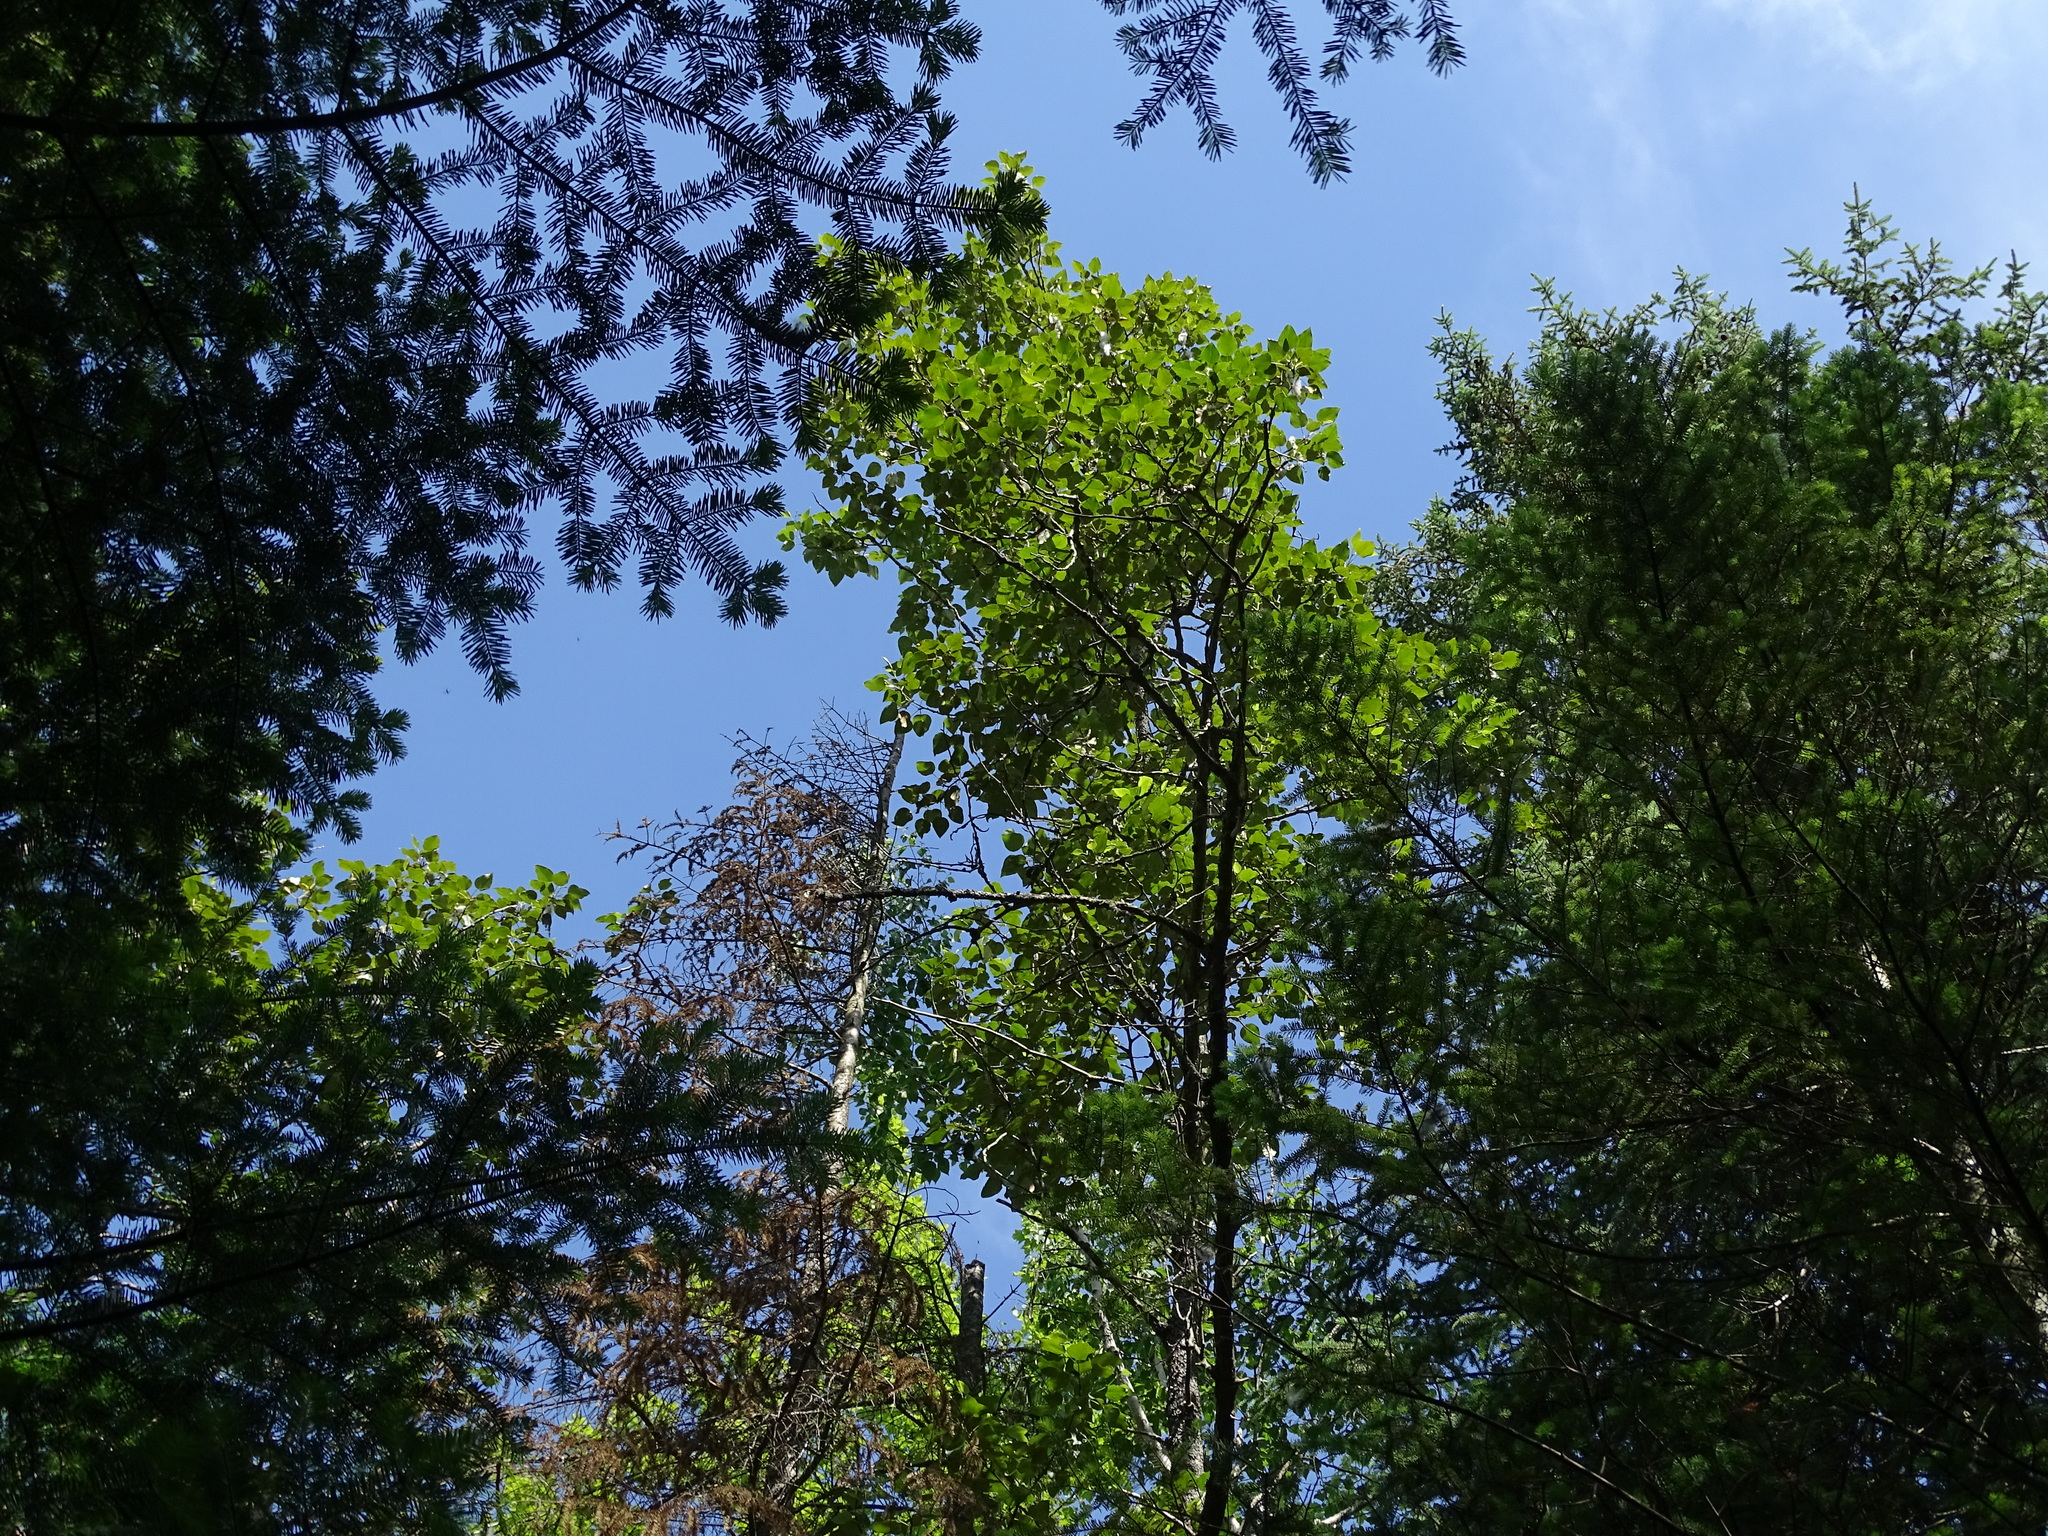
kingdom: Plantae
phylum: Tracheophyta
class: Magnoliopsida
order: Malpighiales
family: Salicaceae
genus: Populus
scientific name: Populus balsamifera
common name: Balsam poplar
